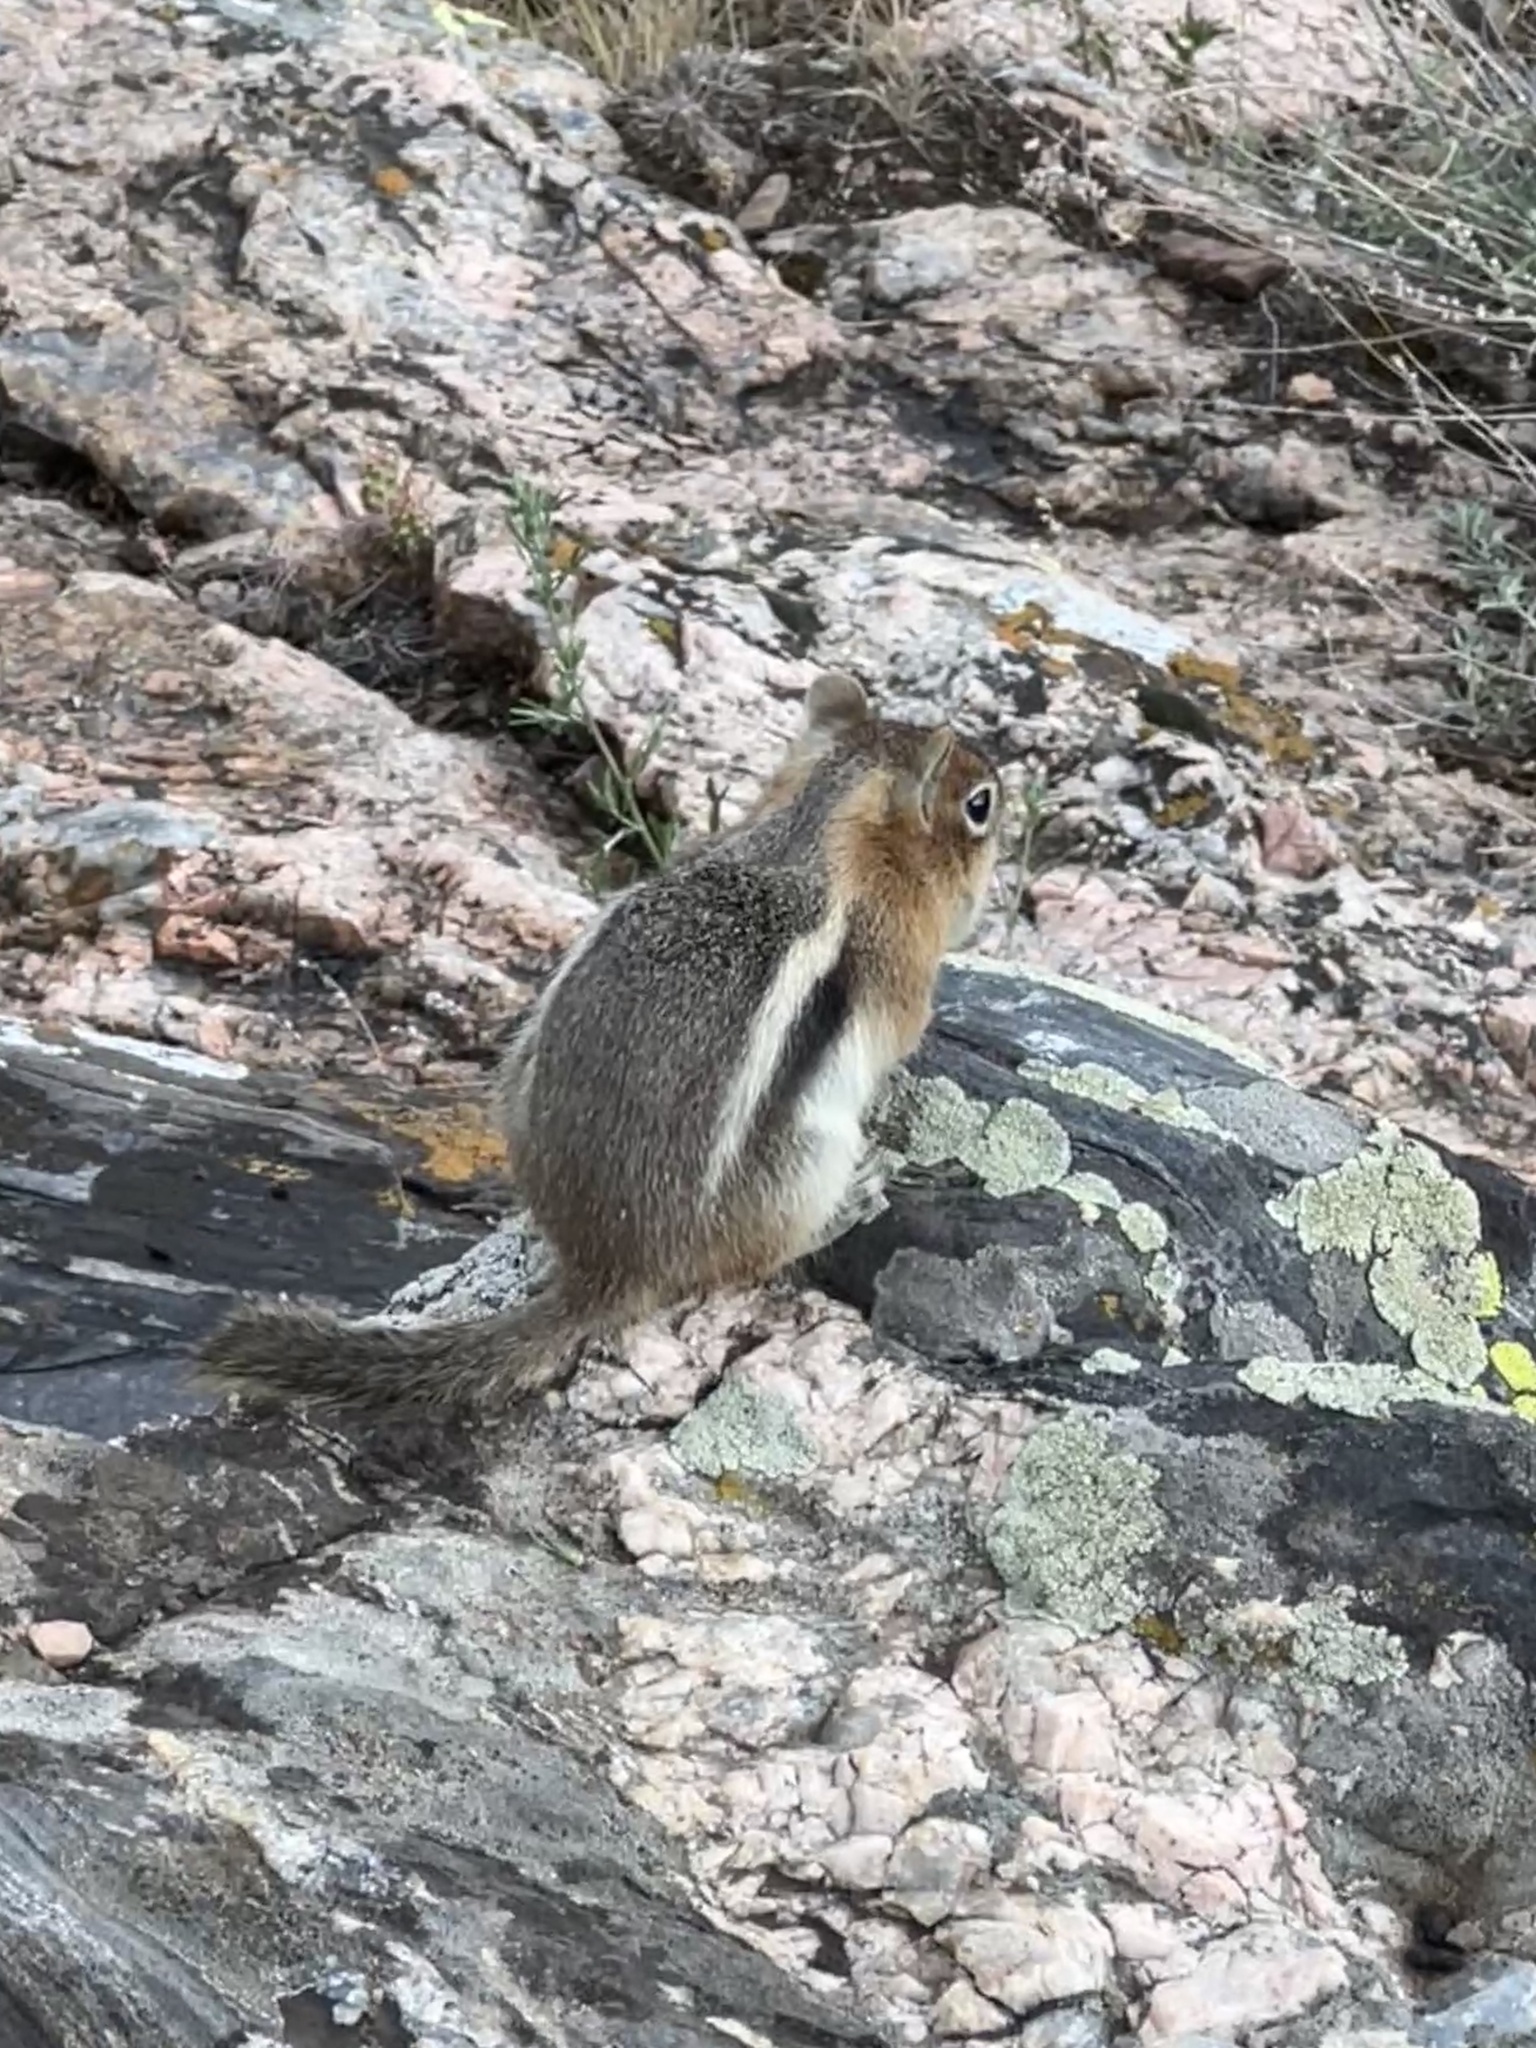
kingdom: Animalia
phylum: Chordata
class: Mammalia
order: Rodentia
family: Sciuridae
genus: Callospermophilus
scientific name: Callospermophilus lateralis
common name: Golden-mantled ground squirrel
